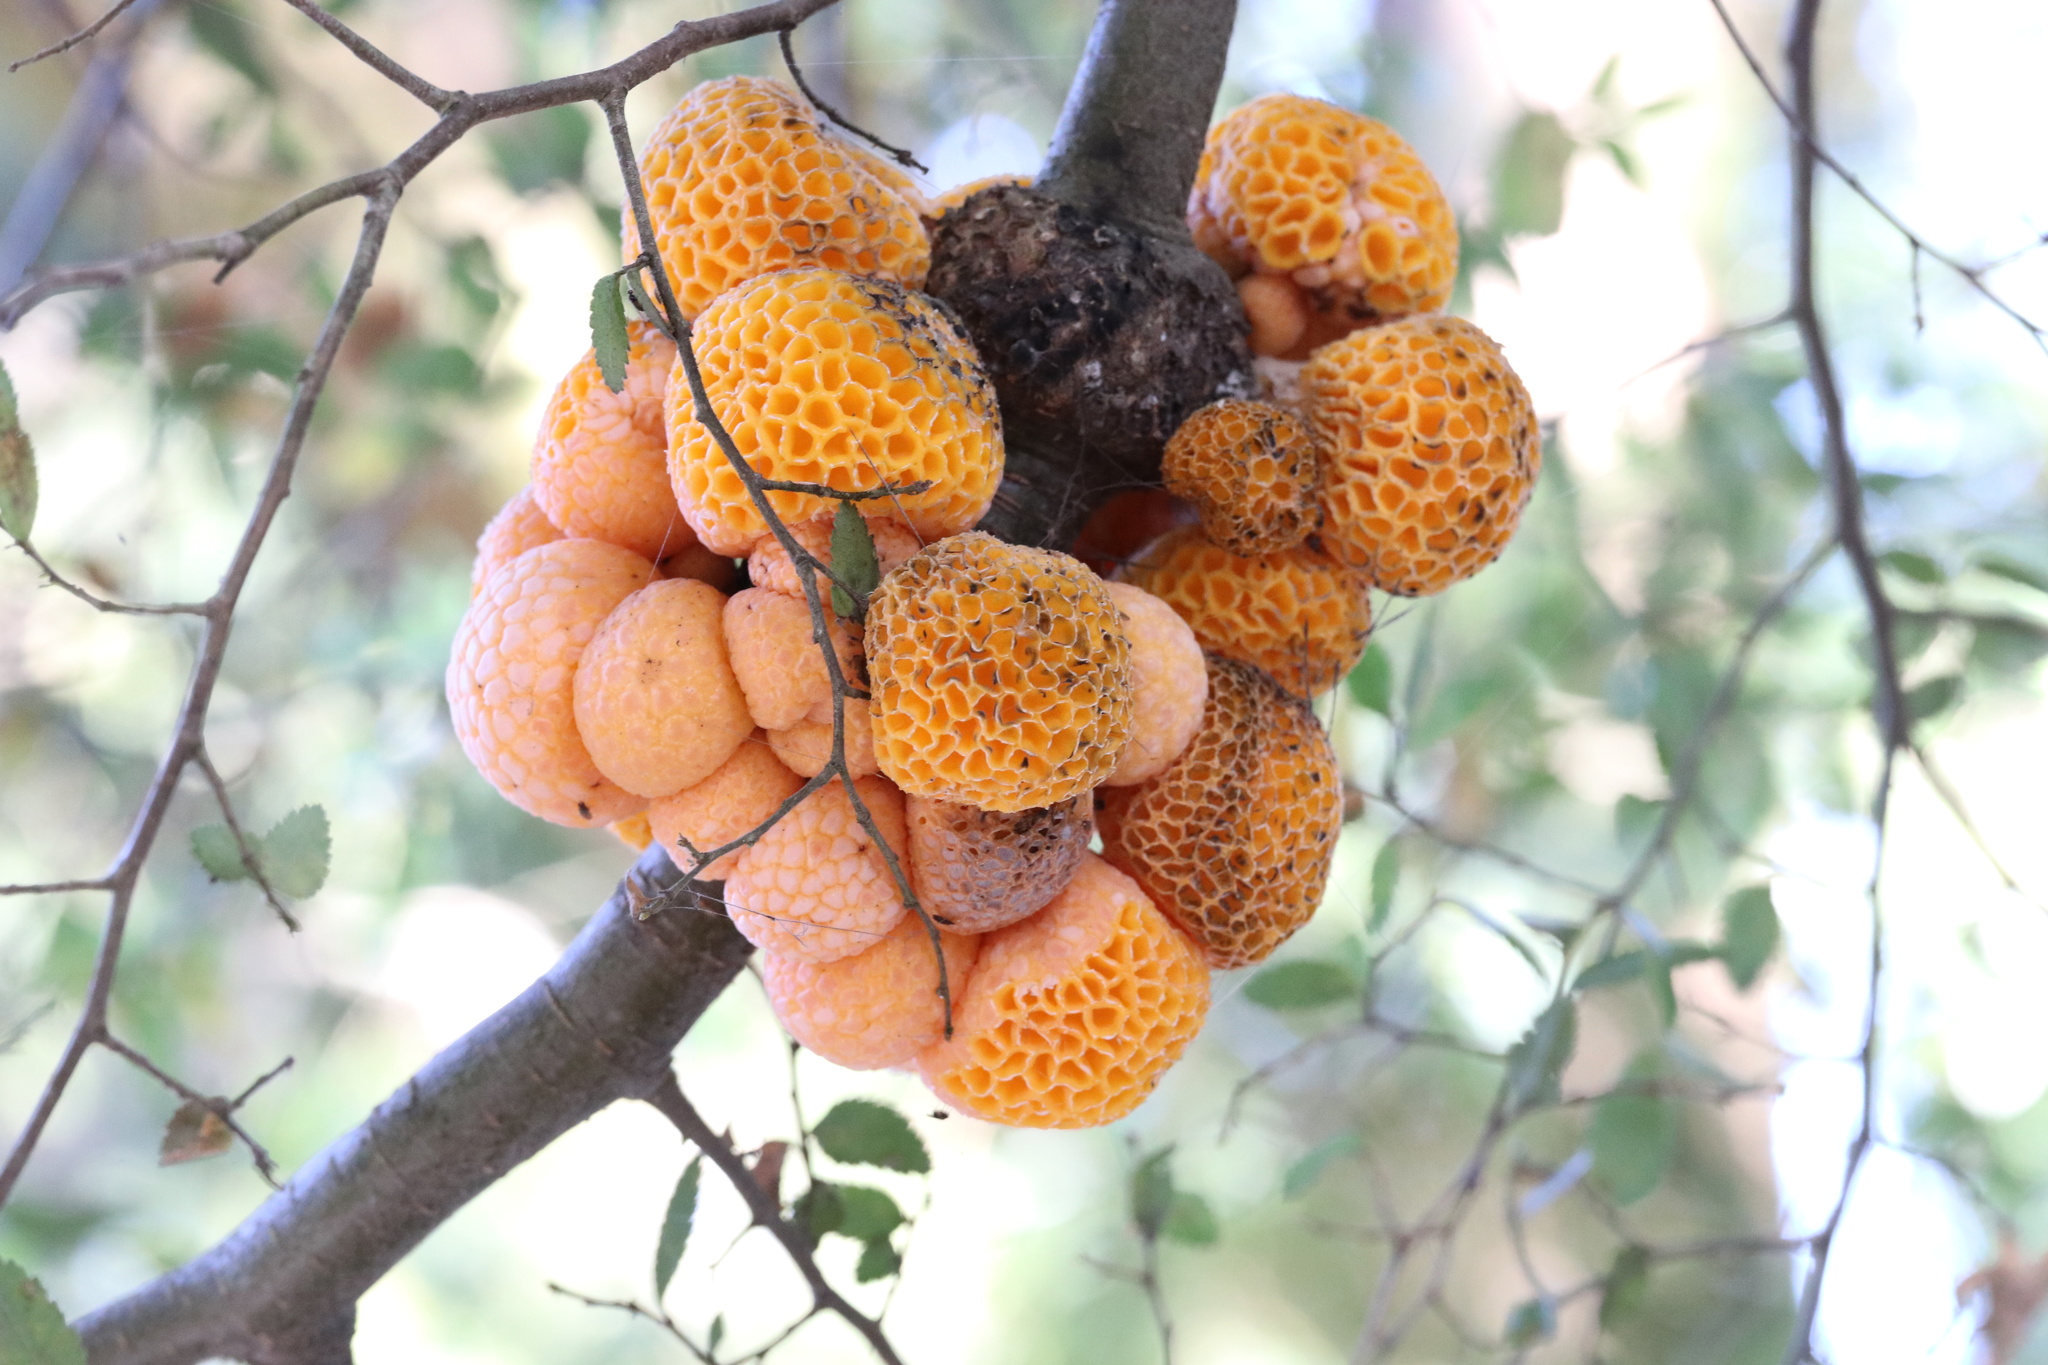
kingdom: Fungi
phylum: Ascomycota
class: Leotiomycetes
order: Cyttariales
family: Cyttariaceae
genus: Cyttaria
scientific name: Cyttaria hariotii
